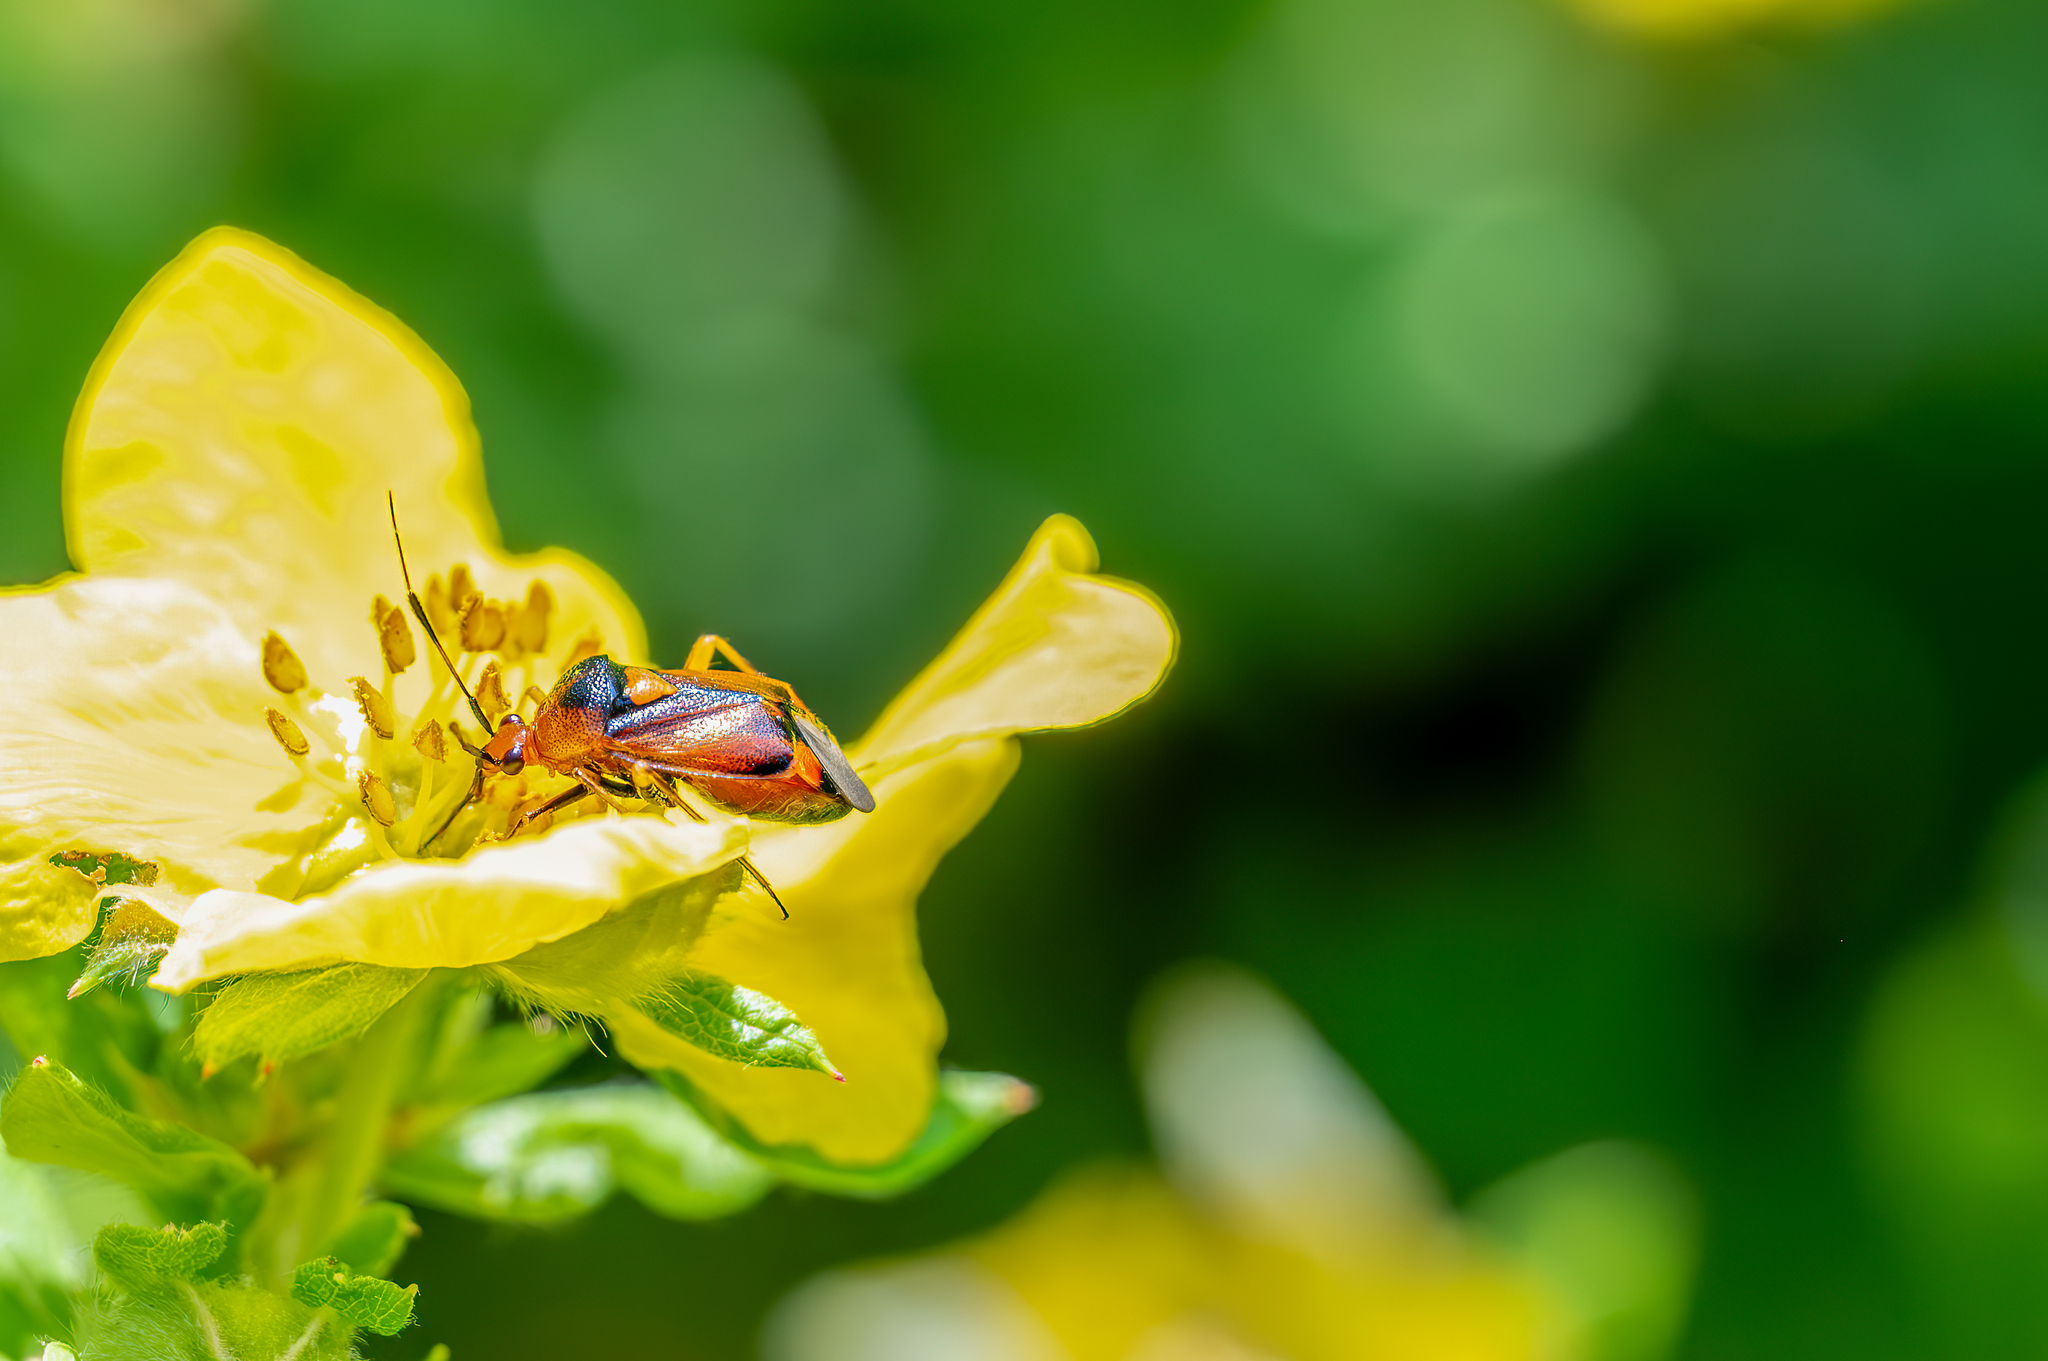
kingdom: Animalia
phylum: Arthropoda
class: Insecta
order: Hemiptera
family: Miridae
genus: Deraeocoris
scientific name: Deraeocoris ruber
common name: Plant bug
